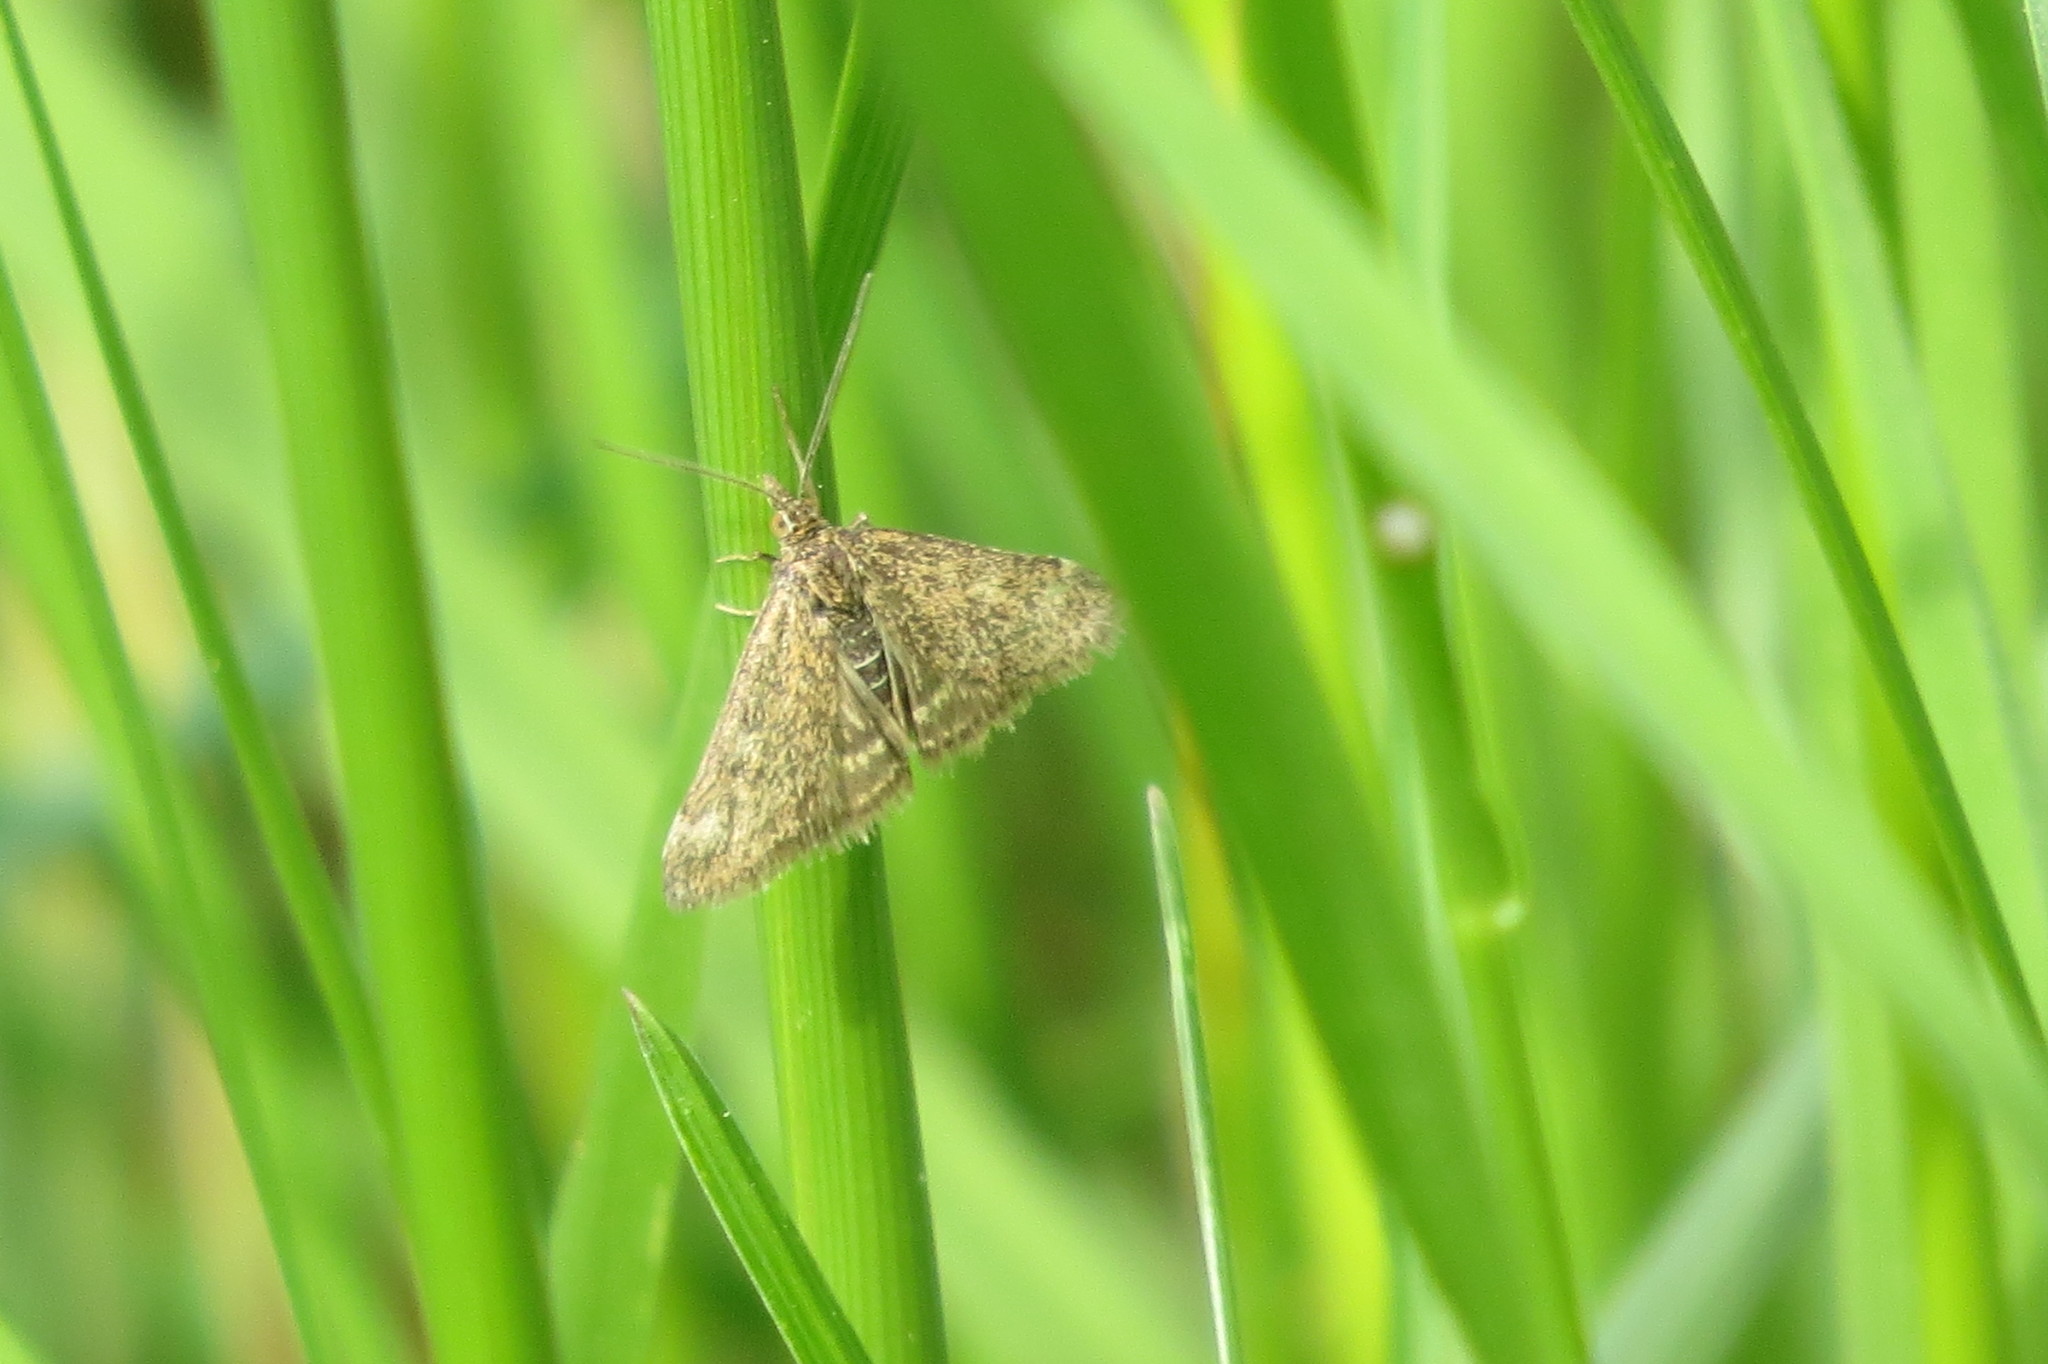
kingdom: Animalia
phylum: Arthropoda
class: Insecta
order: Lepidoptera
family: Crambidae
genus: Pyrausta
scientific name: Pyrausta despicata
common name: Straw-barred pearl
